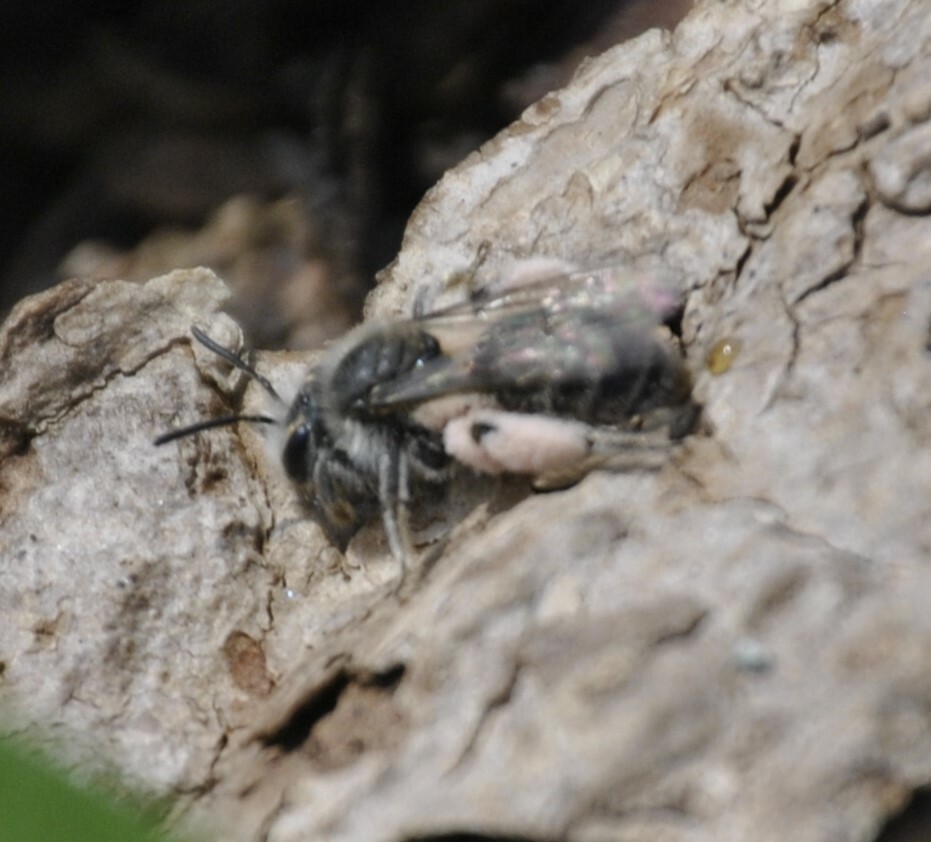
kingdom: Animalia
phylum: Arthropoda
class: Insecta
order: Hymenoptera
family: Andrenidae
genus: Andrena
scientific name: Andrena erigeniae
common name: Spring beauty miner
